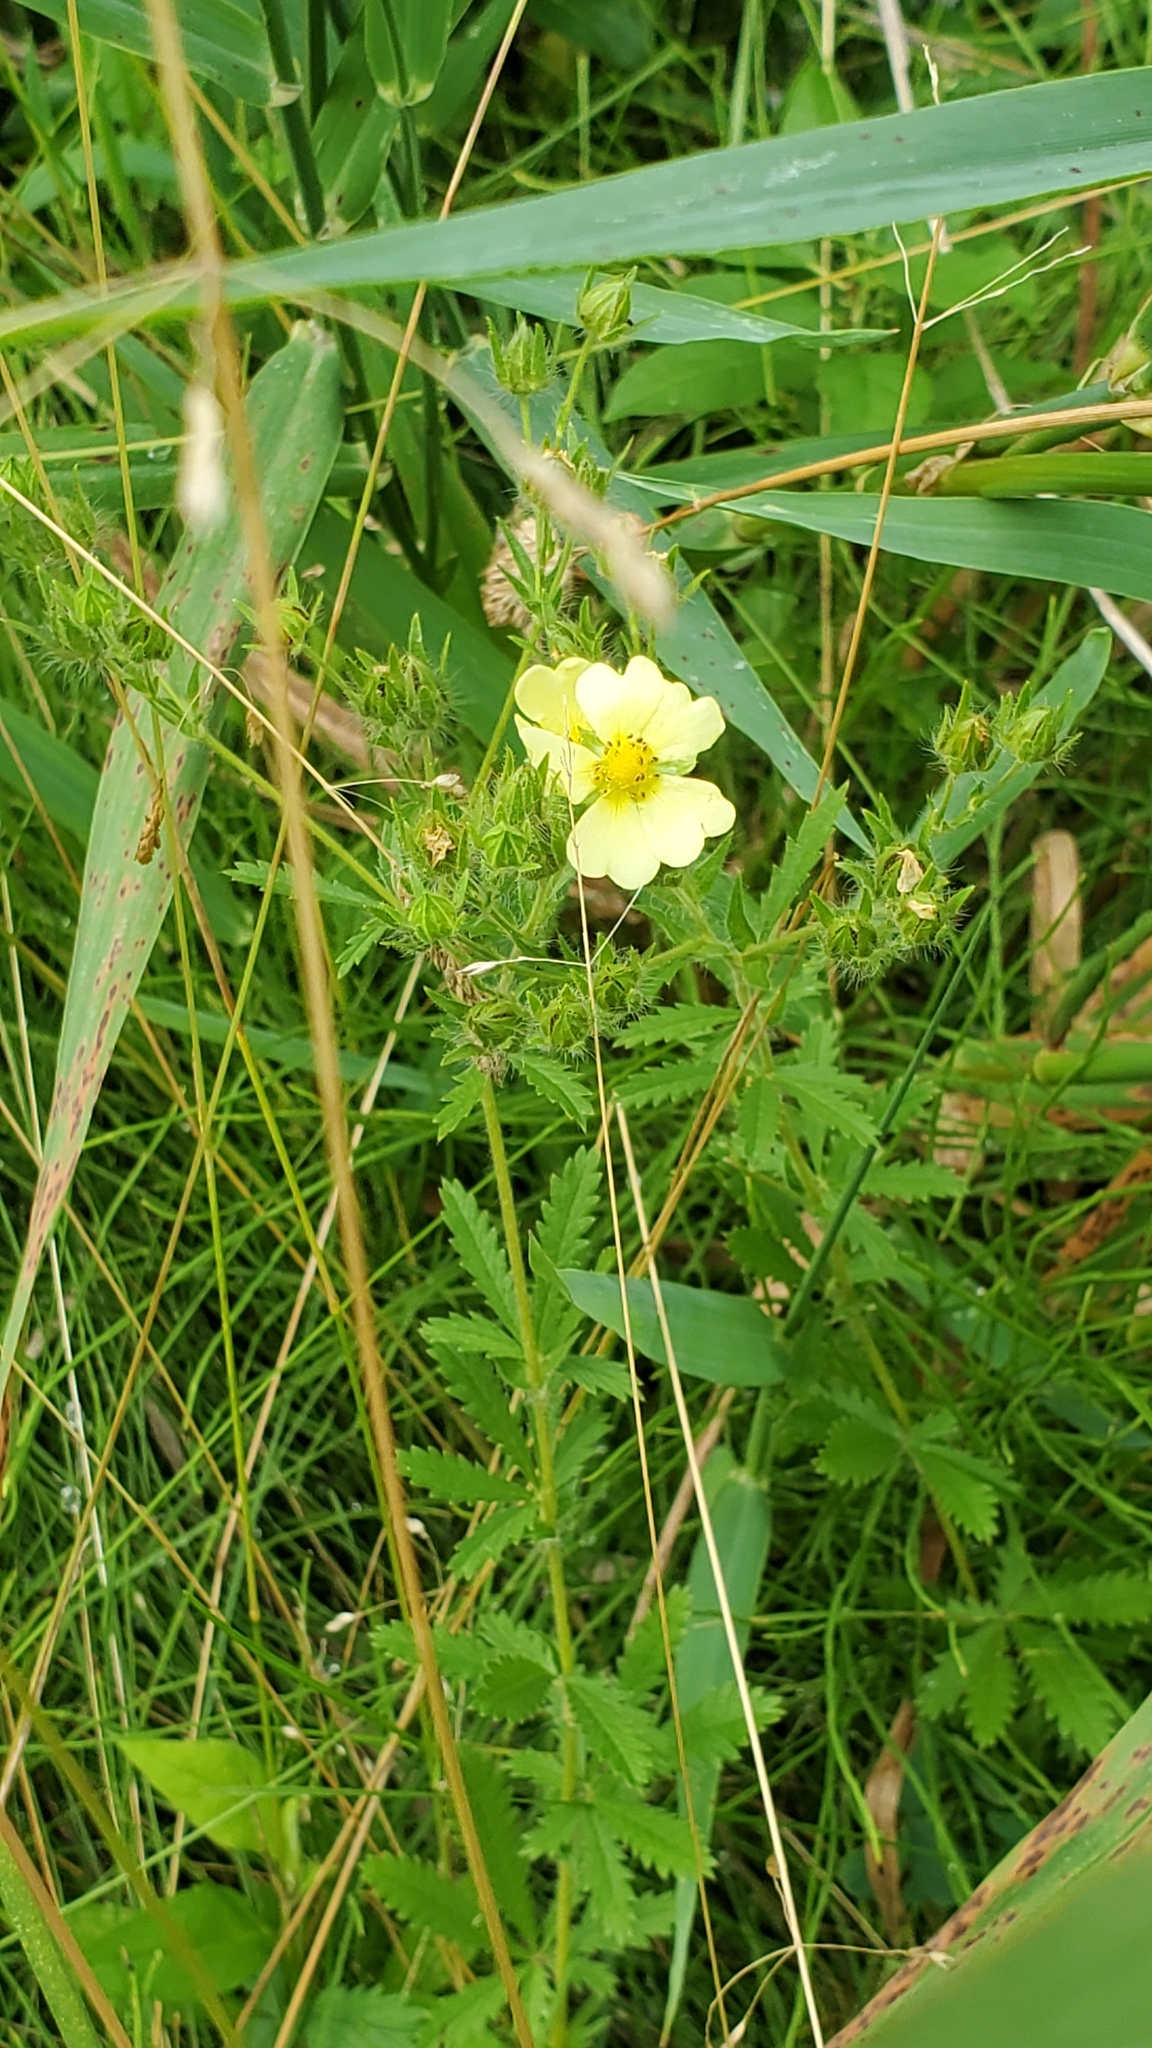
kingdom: Plantae
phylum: Tracheophyta
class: Magnoliopsida
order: Rosales
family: Rosaceae
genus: Potentilla
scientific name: Potentilla recta
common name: Sulphur cinquefoil
